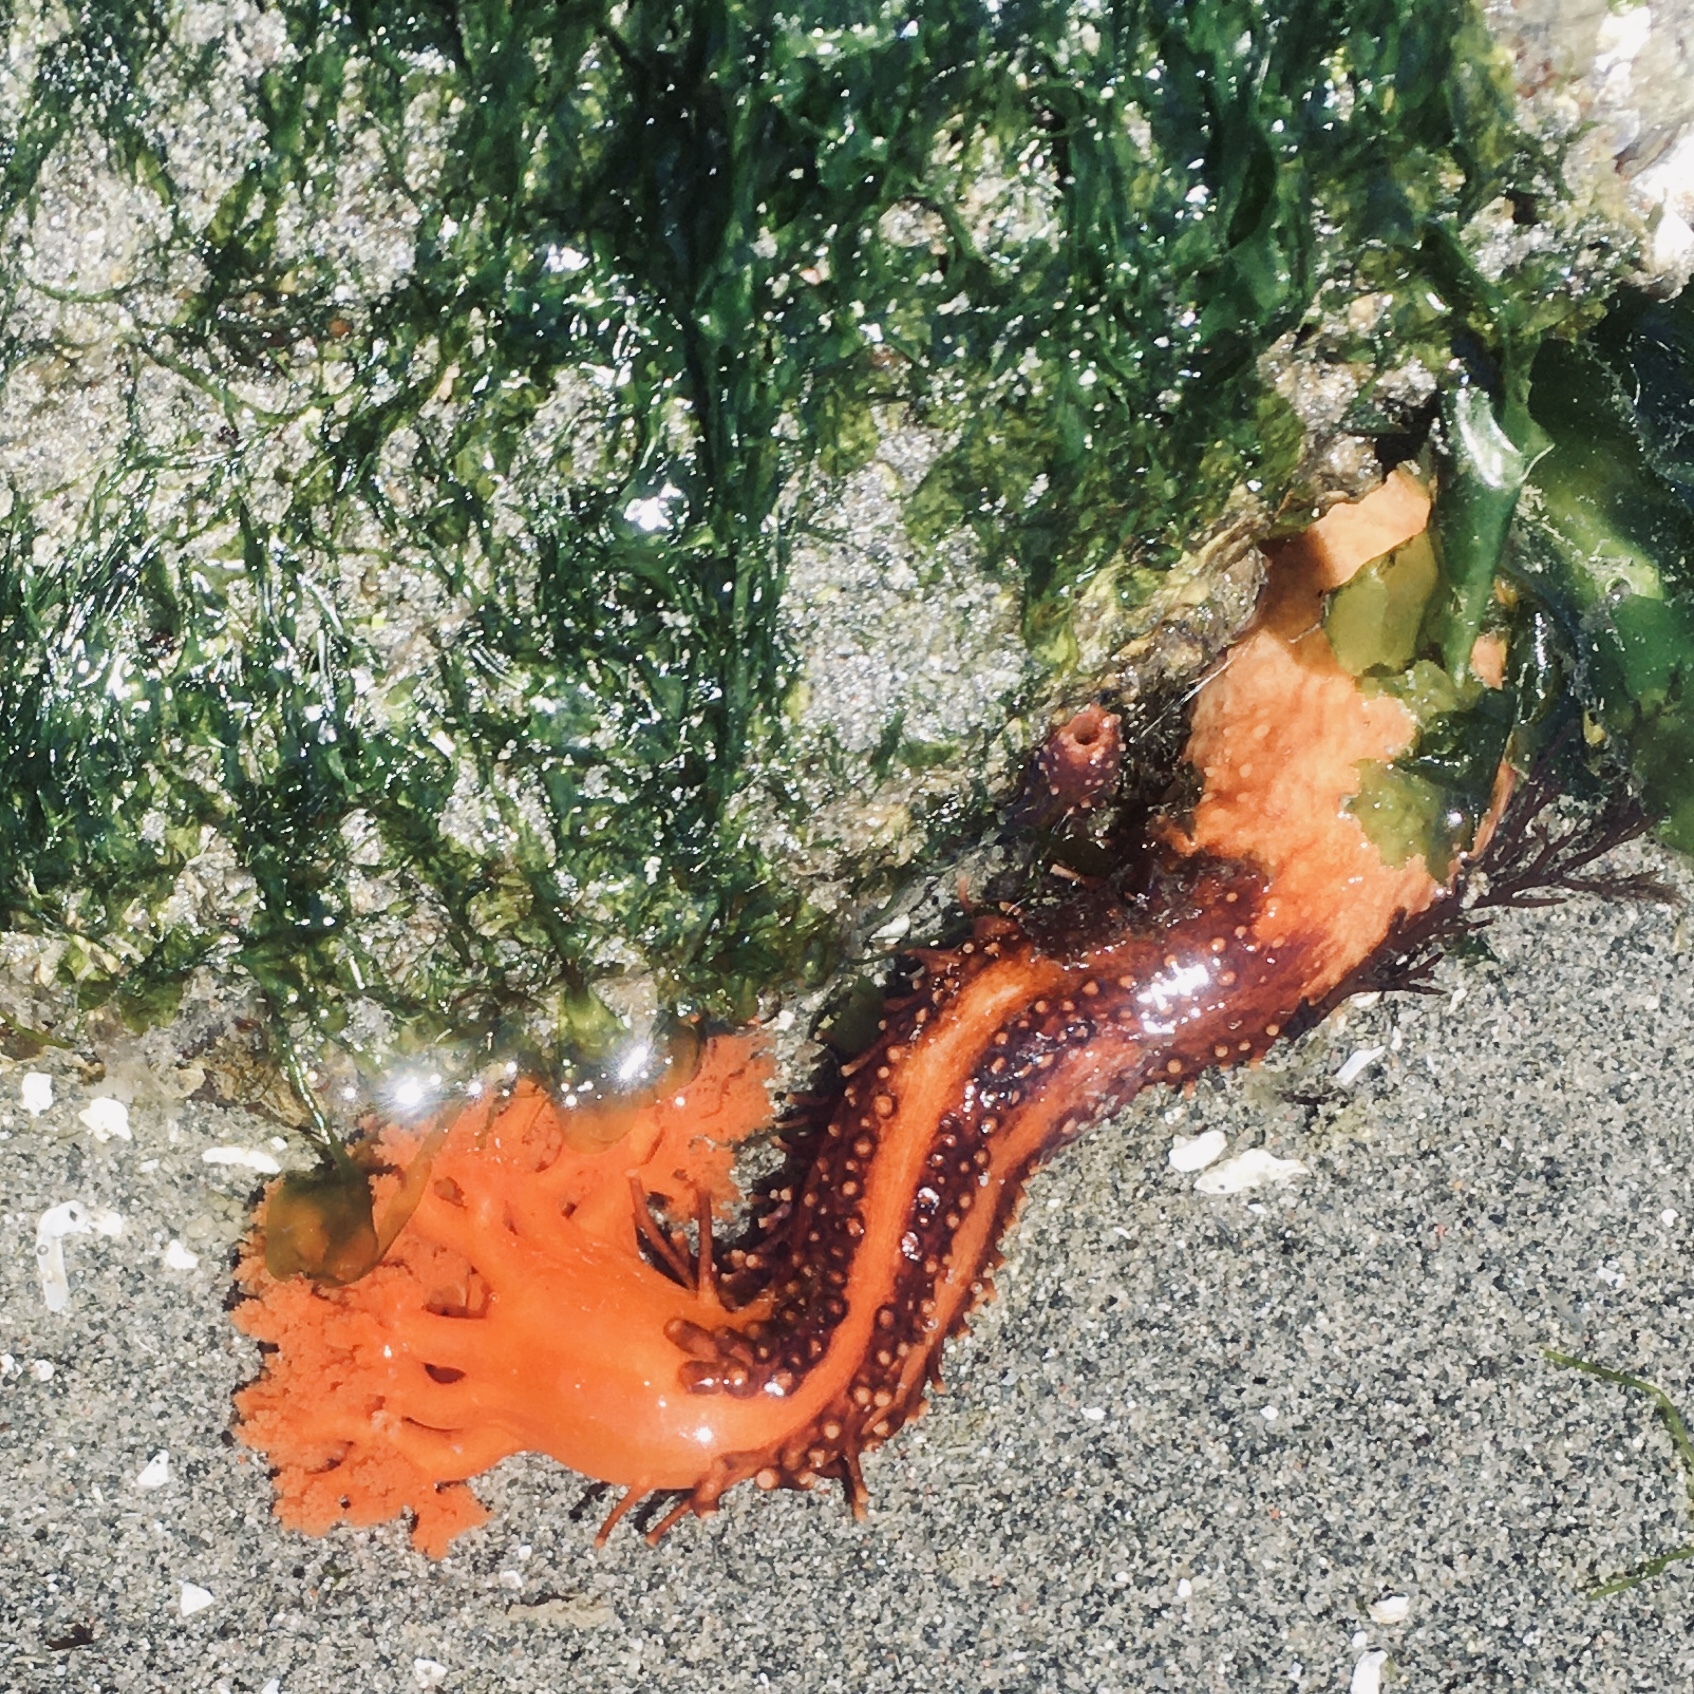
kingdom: Animalia
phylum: Echinodermata
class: Holothuroidea
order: Dendrochirotida
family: Cucumariidae
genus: Cucumaria
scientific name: Cucumaria miniata
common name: Orange sea cucumber
